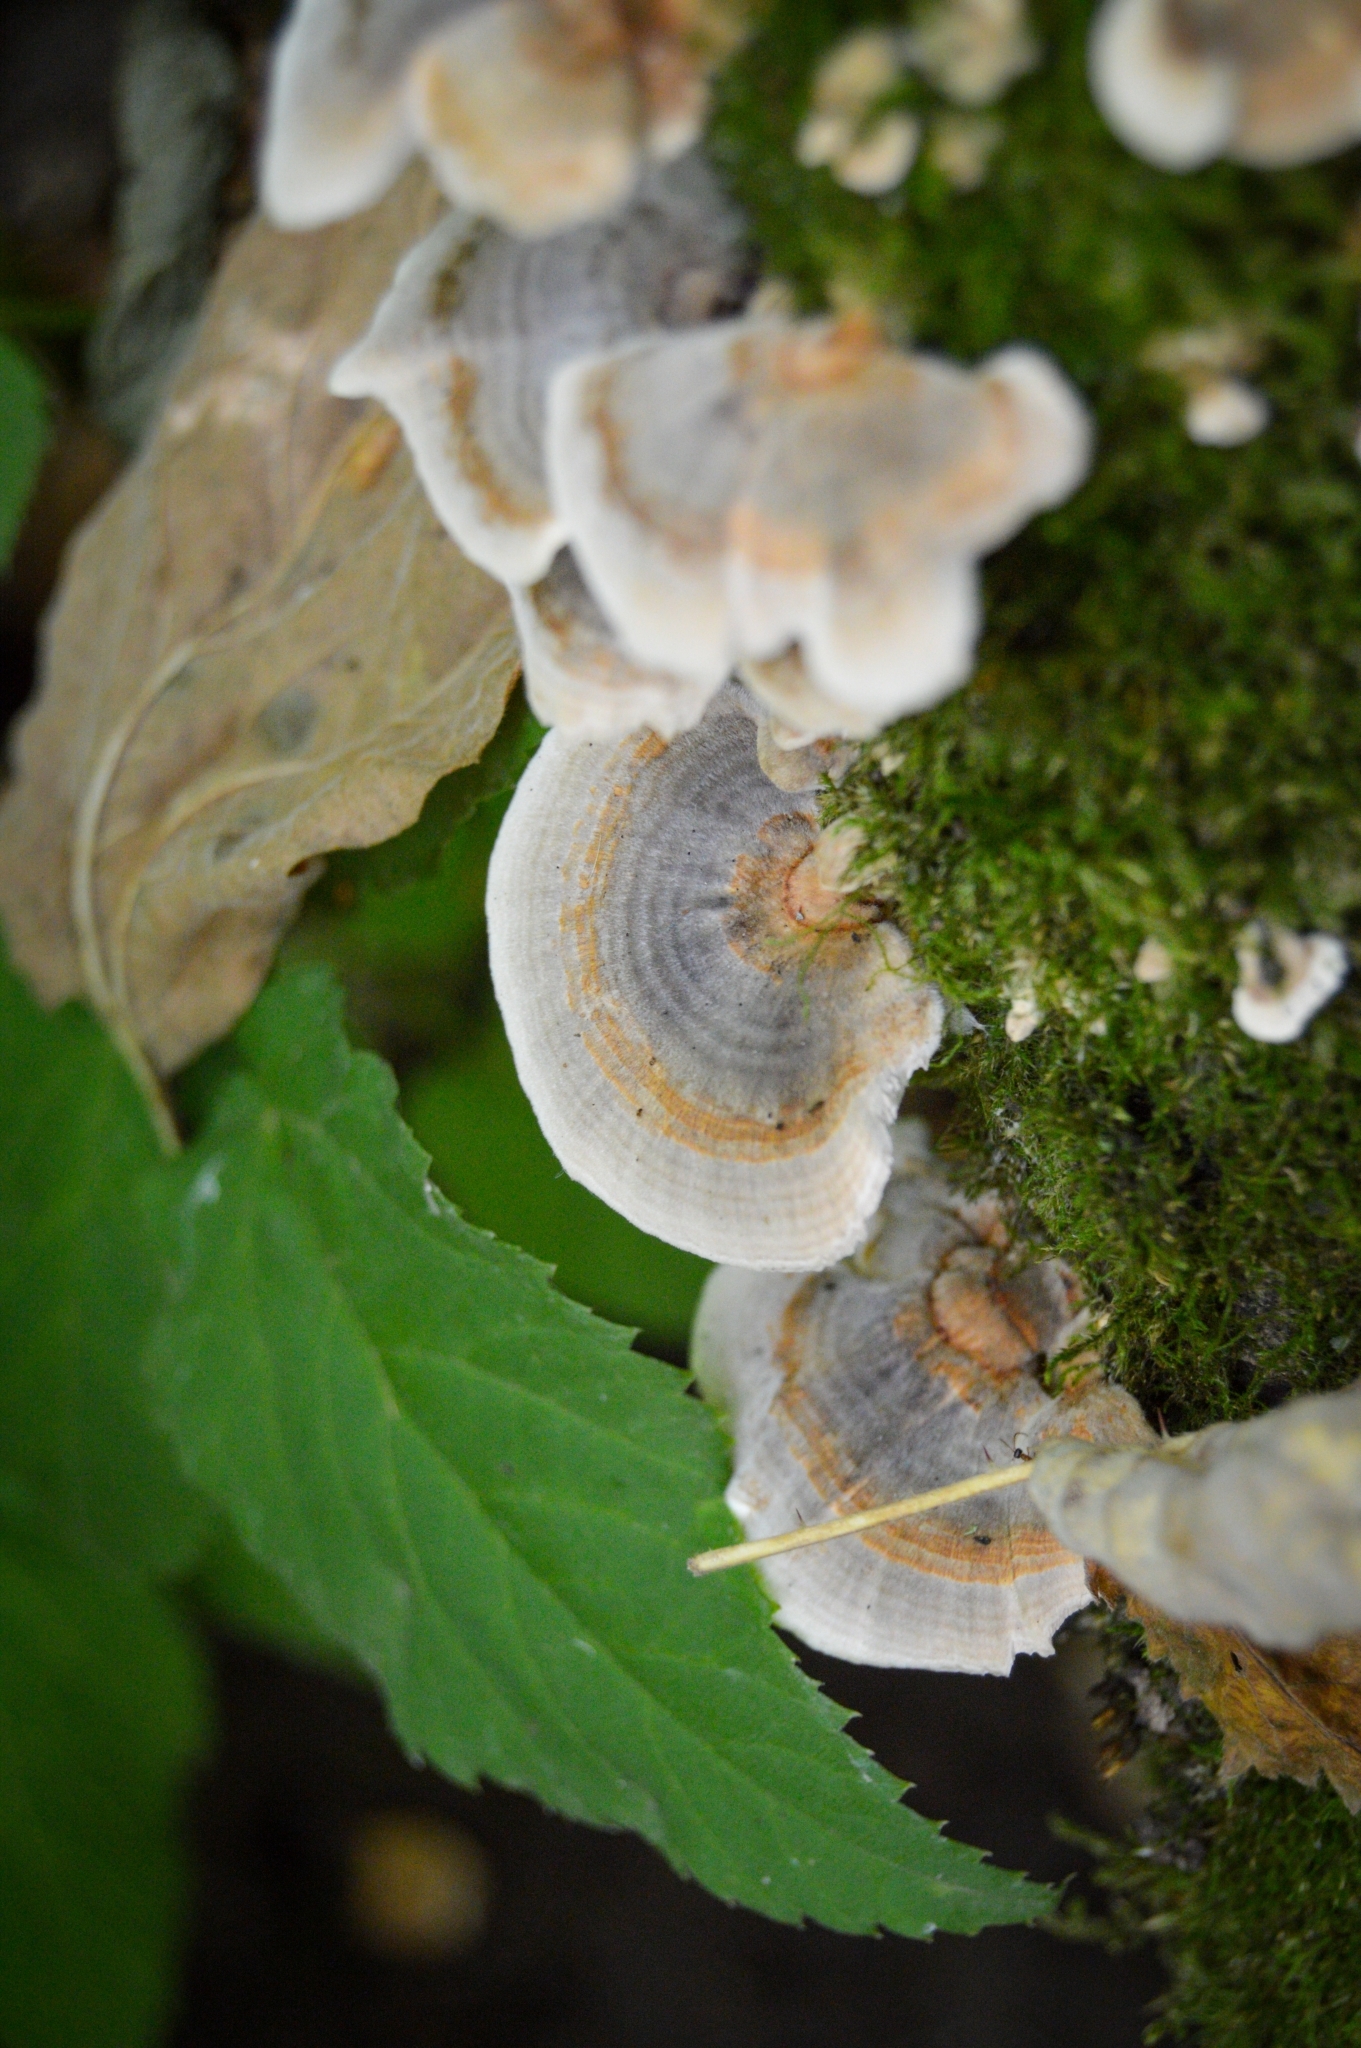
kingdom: Fungi
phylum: Basidiomycota
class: Agaricomycetes
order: Polyporales
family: Polyporaceae
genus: Trametes
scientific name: Trametes versicolor
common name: Turkeytail
